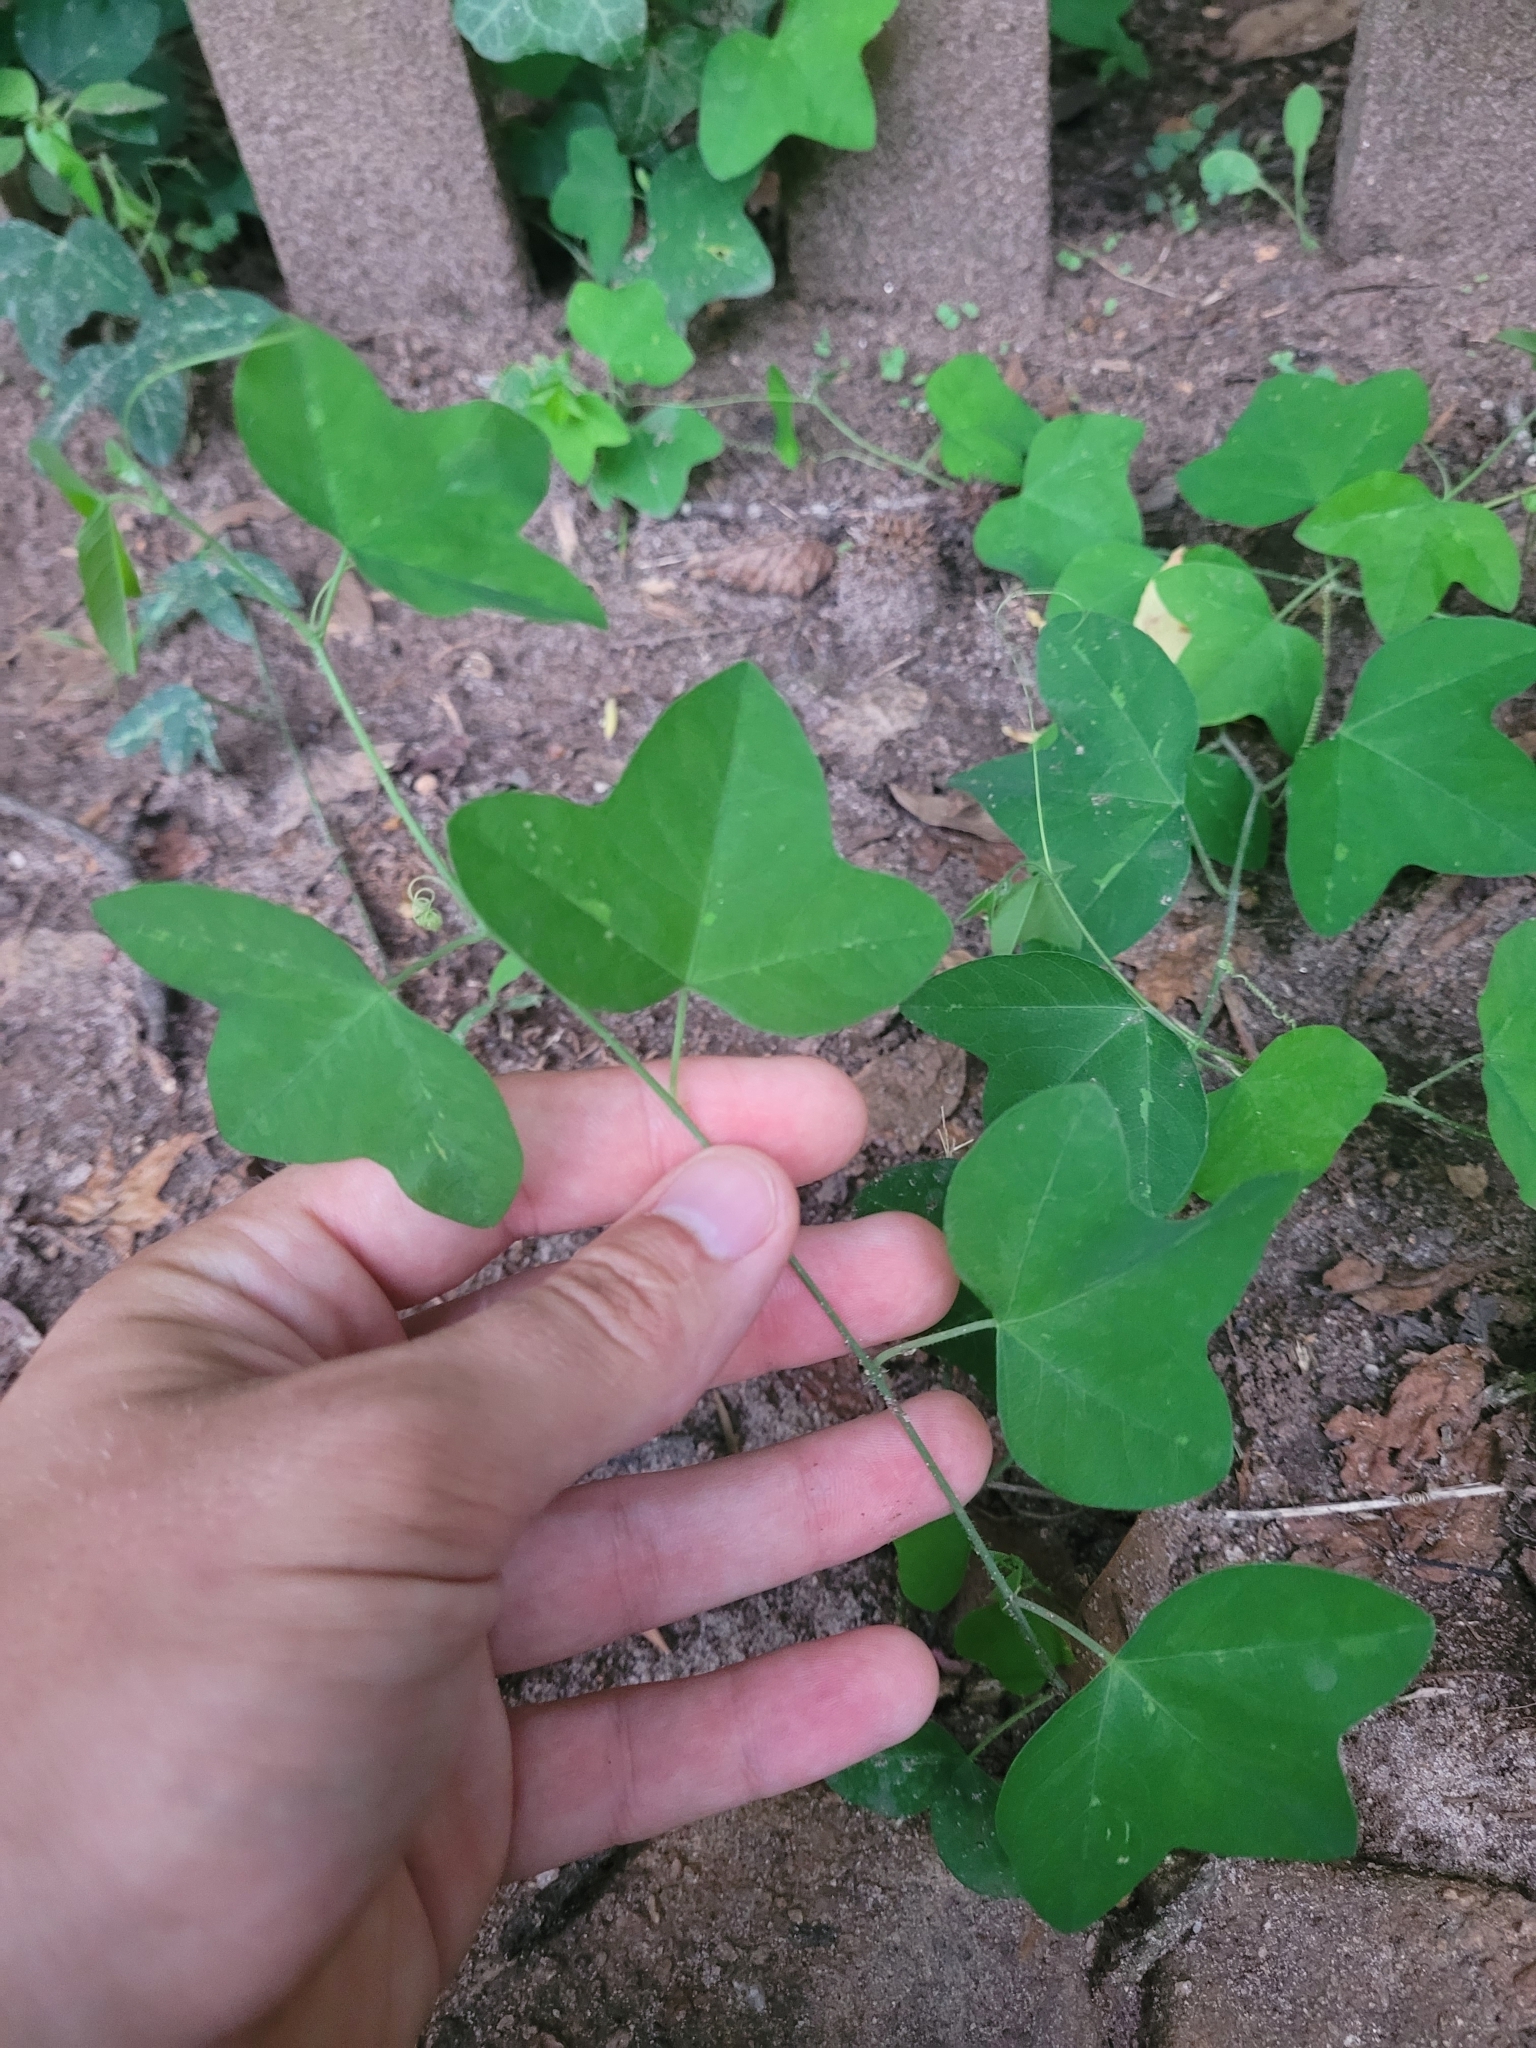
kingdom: Plantae
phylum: Tracheophyta
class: Magnoliopsida
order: Malpighiales
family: Passifloraceae
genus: Passiflora
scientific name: Passiflora lutea
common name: Yellow passionflower
